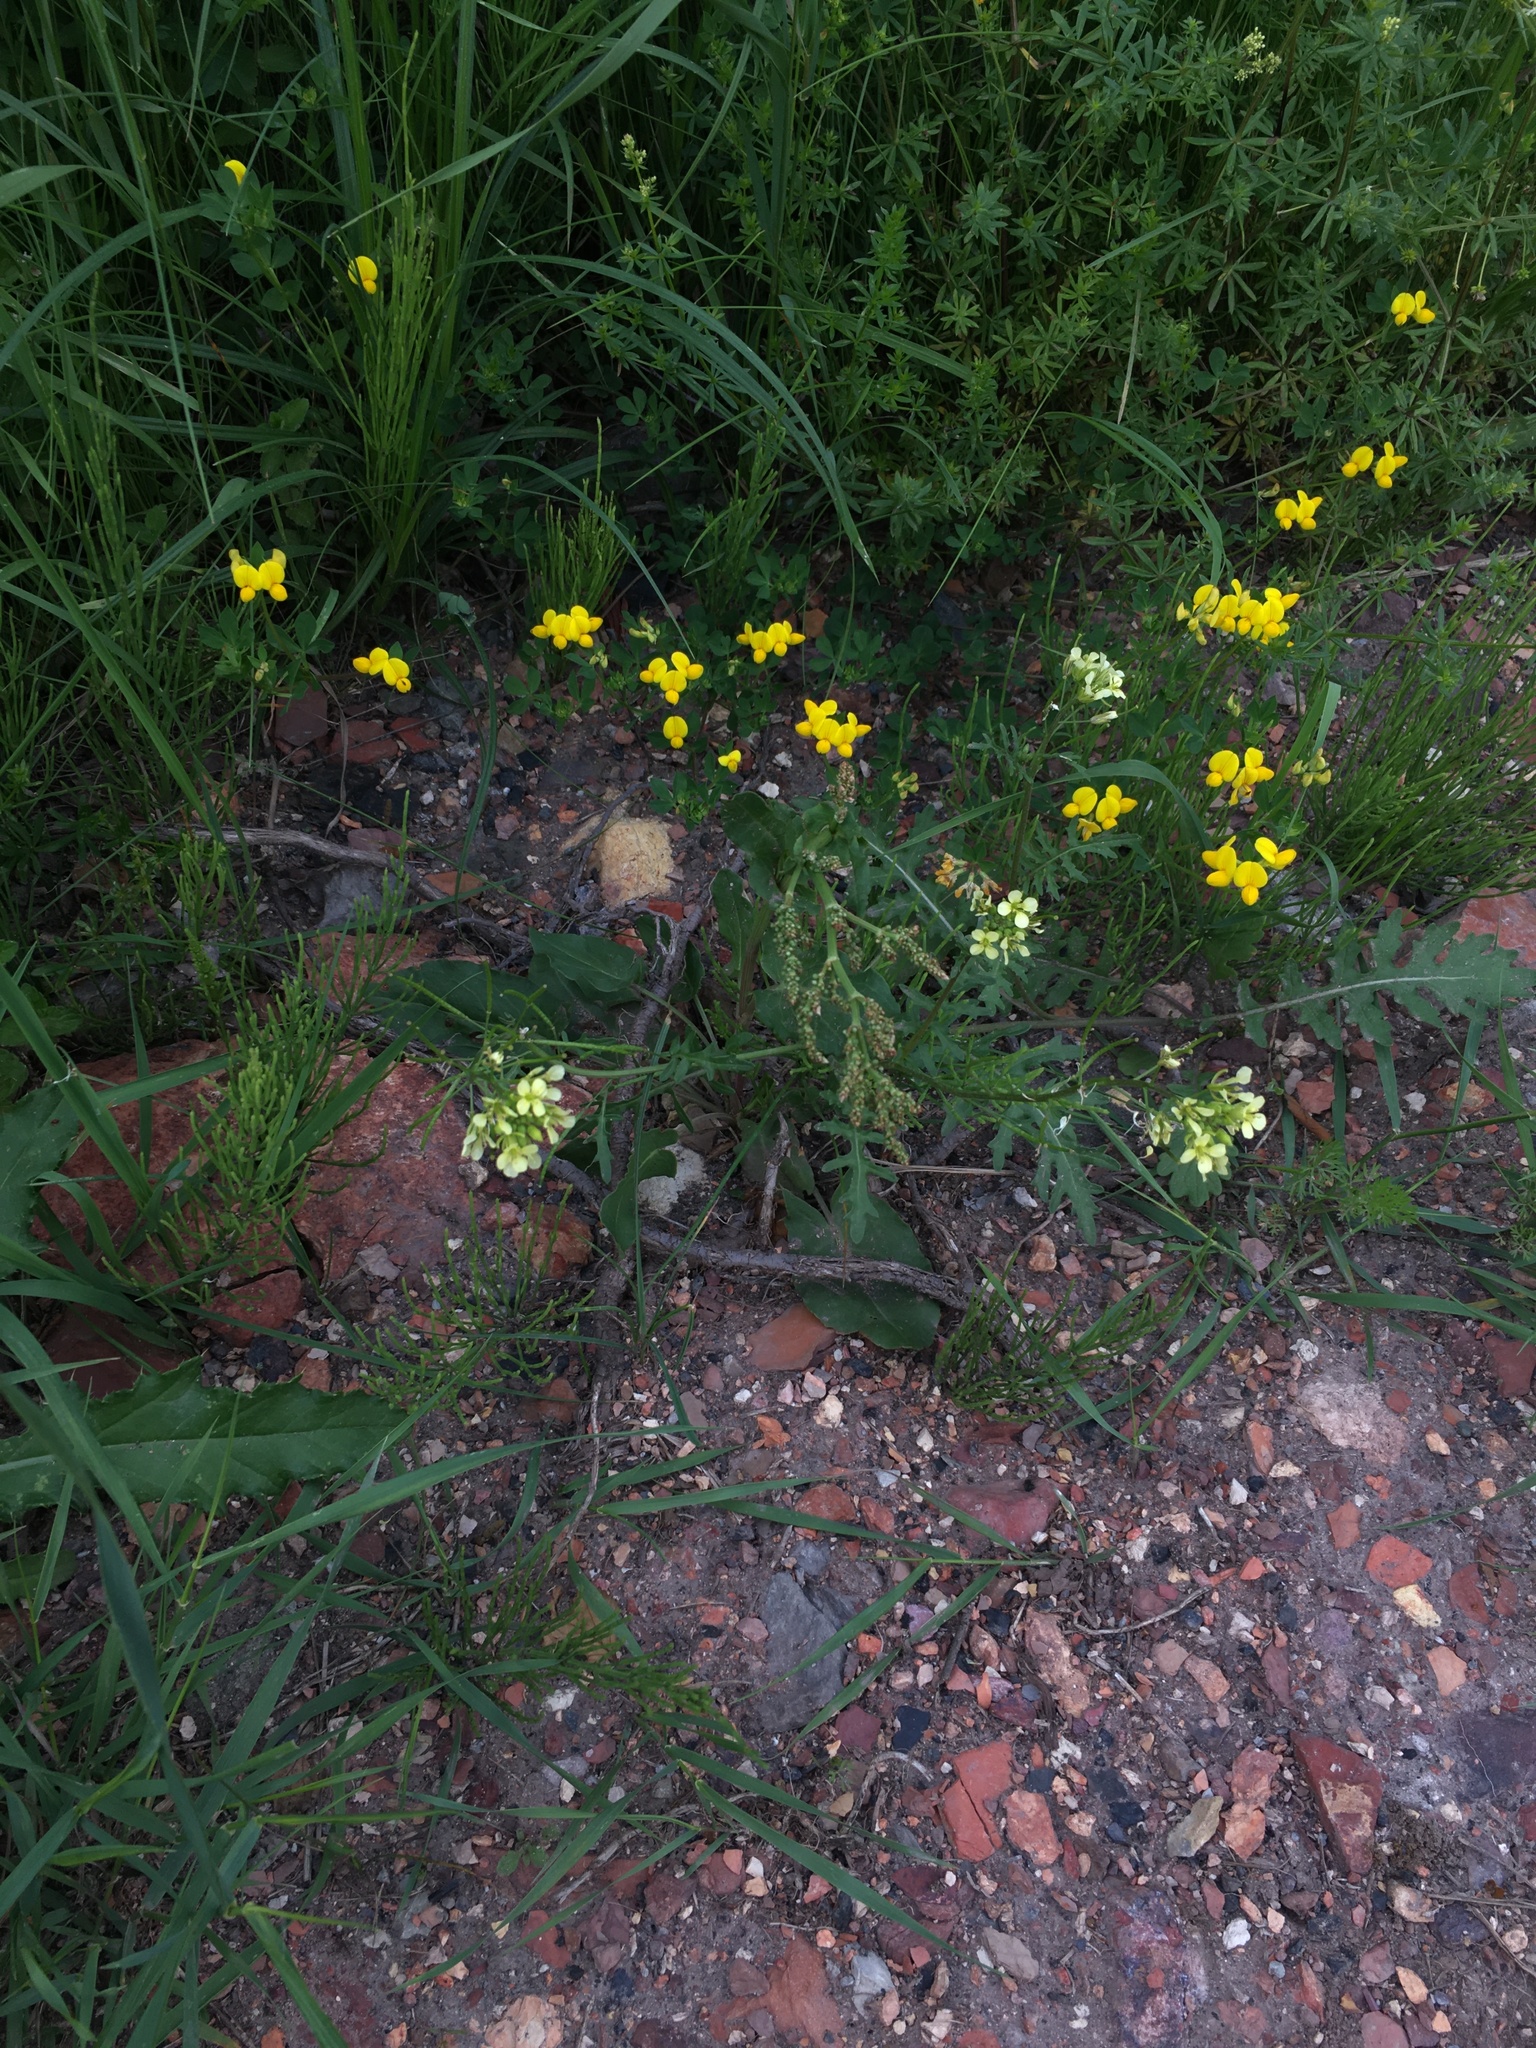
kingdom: Plantae
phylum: Tracheophyta
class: Magnoliopsida
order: Brassicales
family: Brassicaceae
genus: Erucastrum
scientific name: Erucastrum gallicum
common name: Hairy rocket
